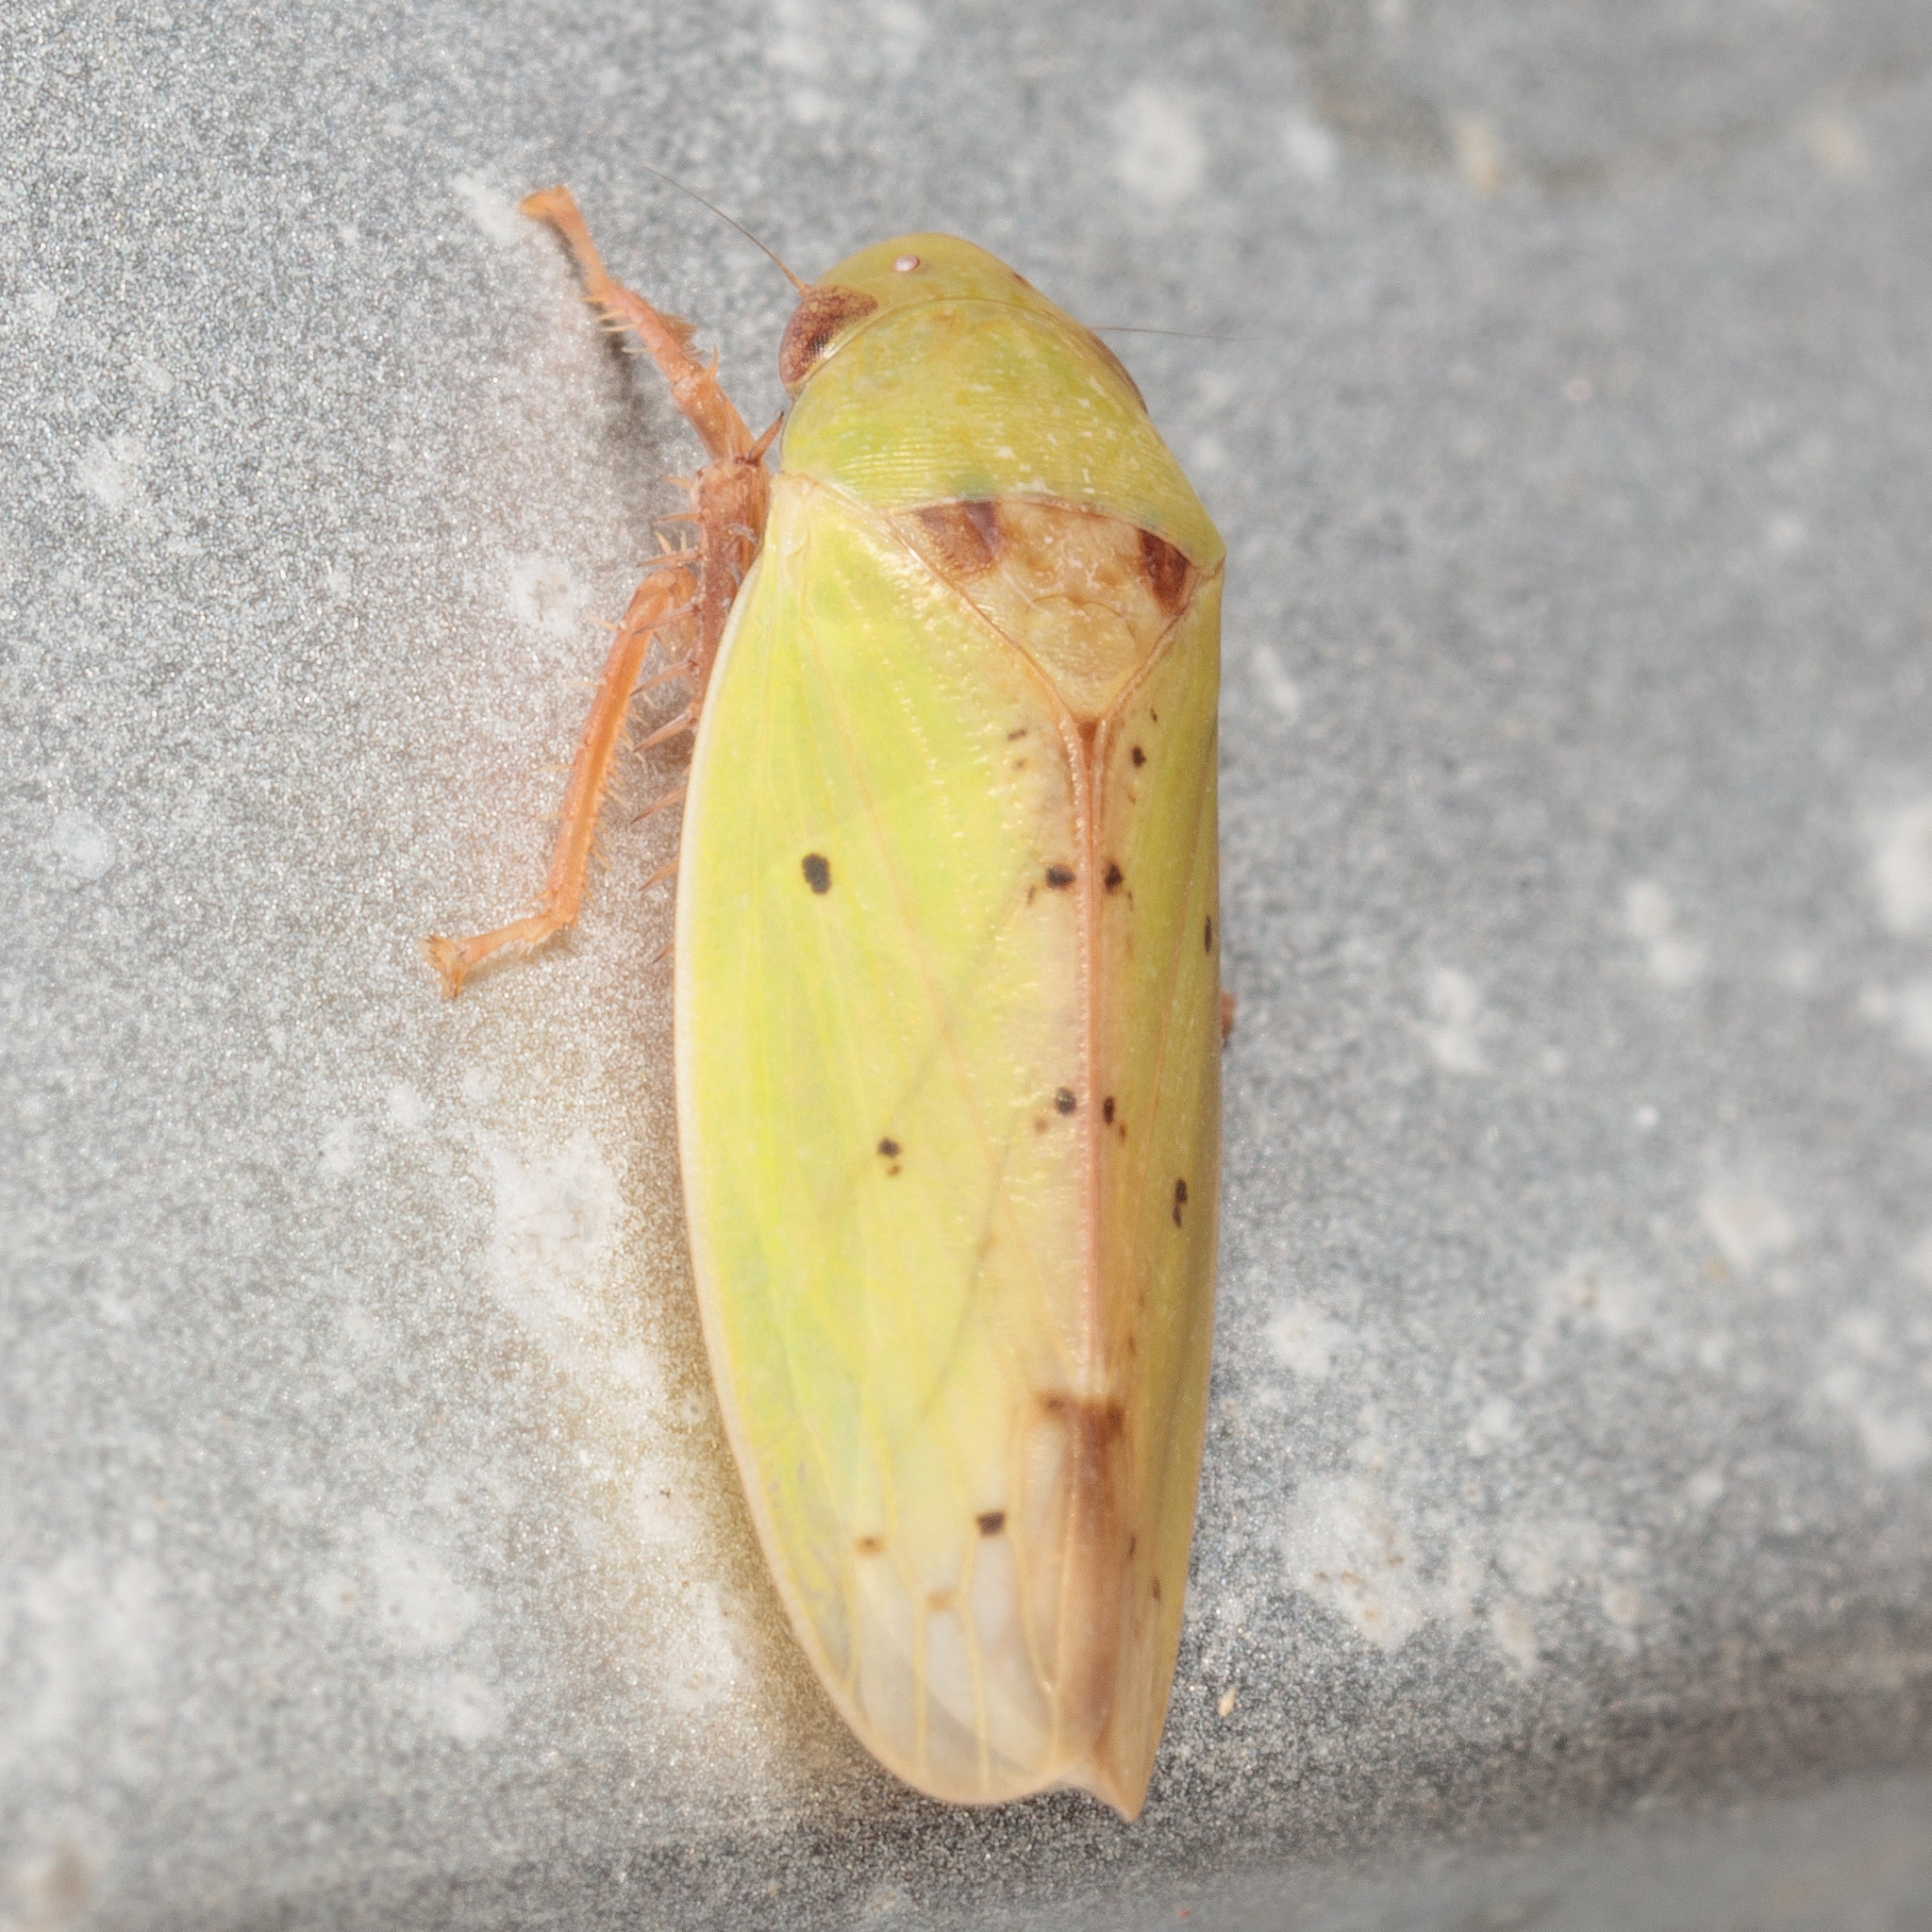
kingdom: Animalia
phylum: Arthropoda
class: Insecta
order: Hemiptera
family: Cicadellidae
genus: Ponana
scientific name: Ponana
